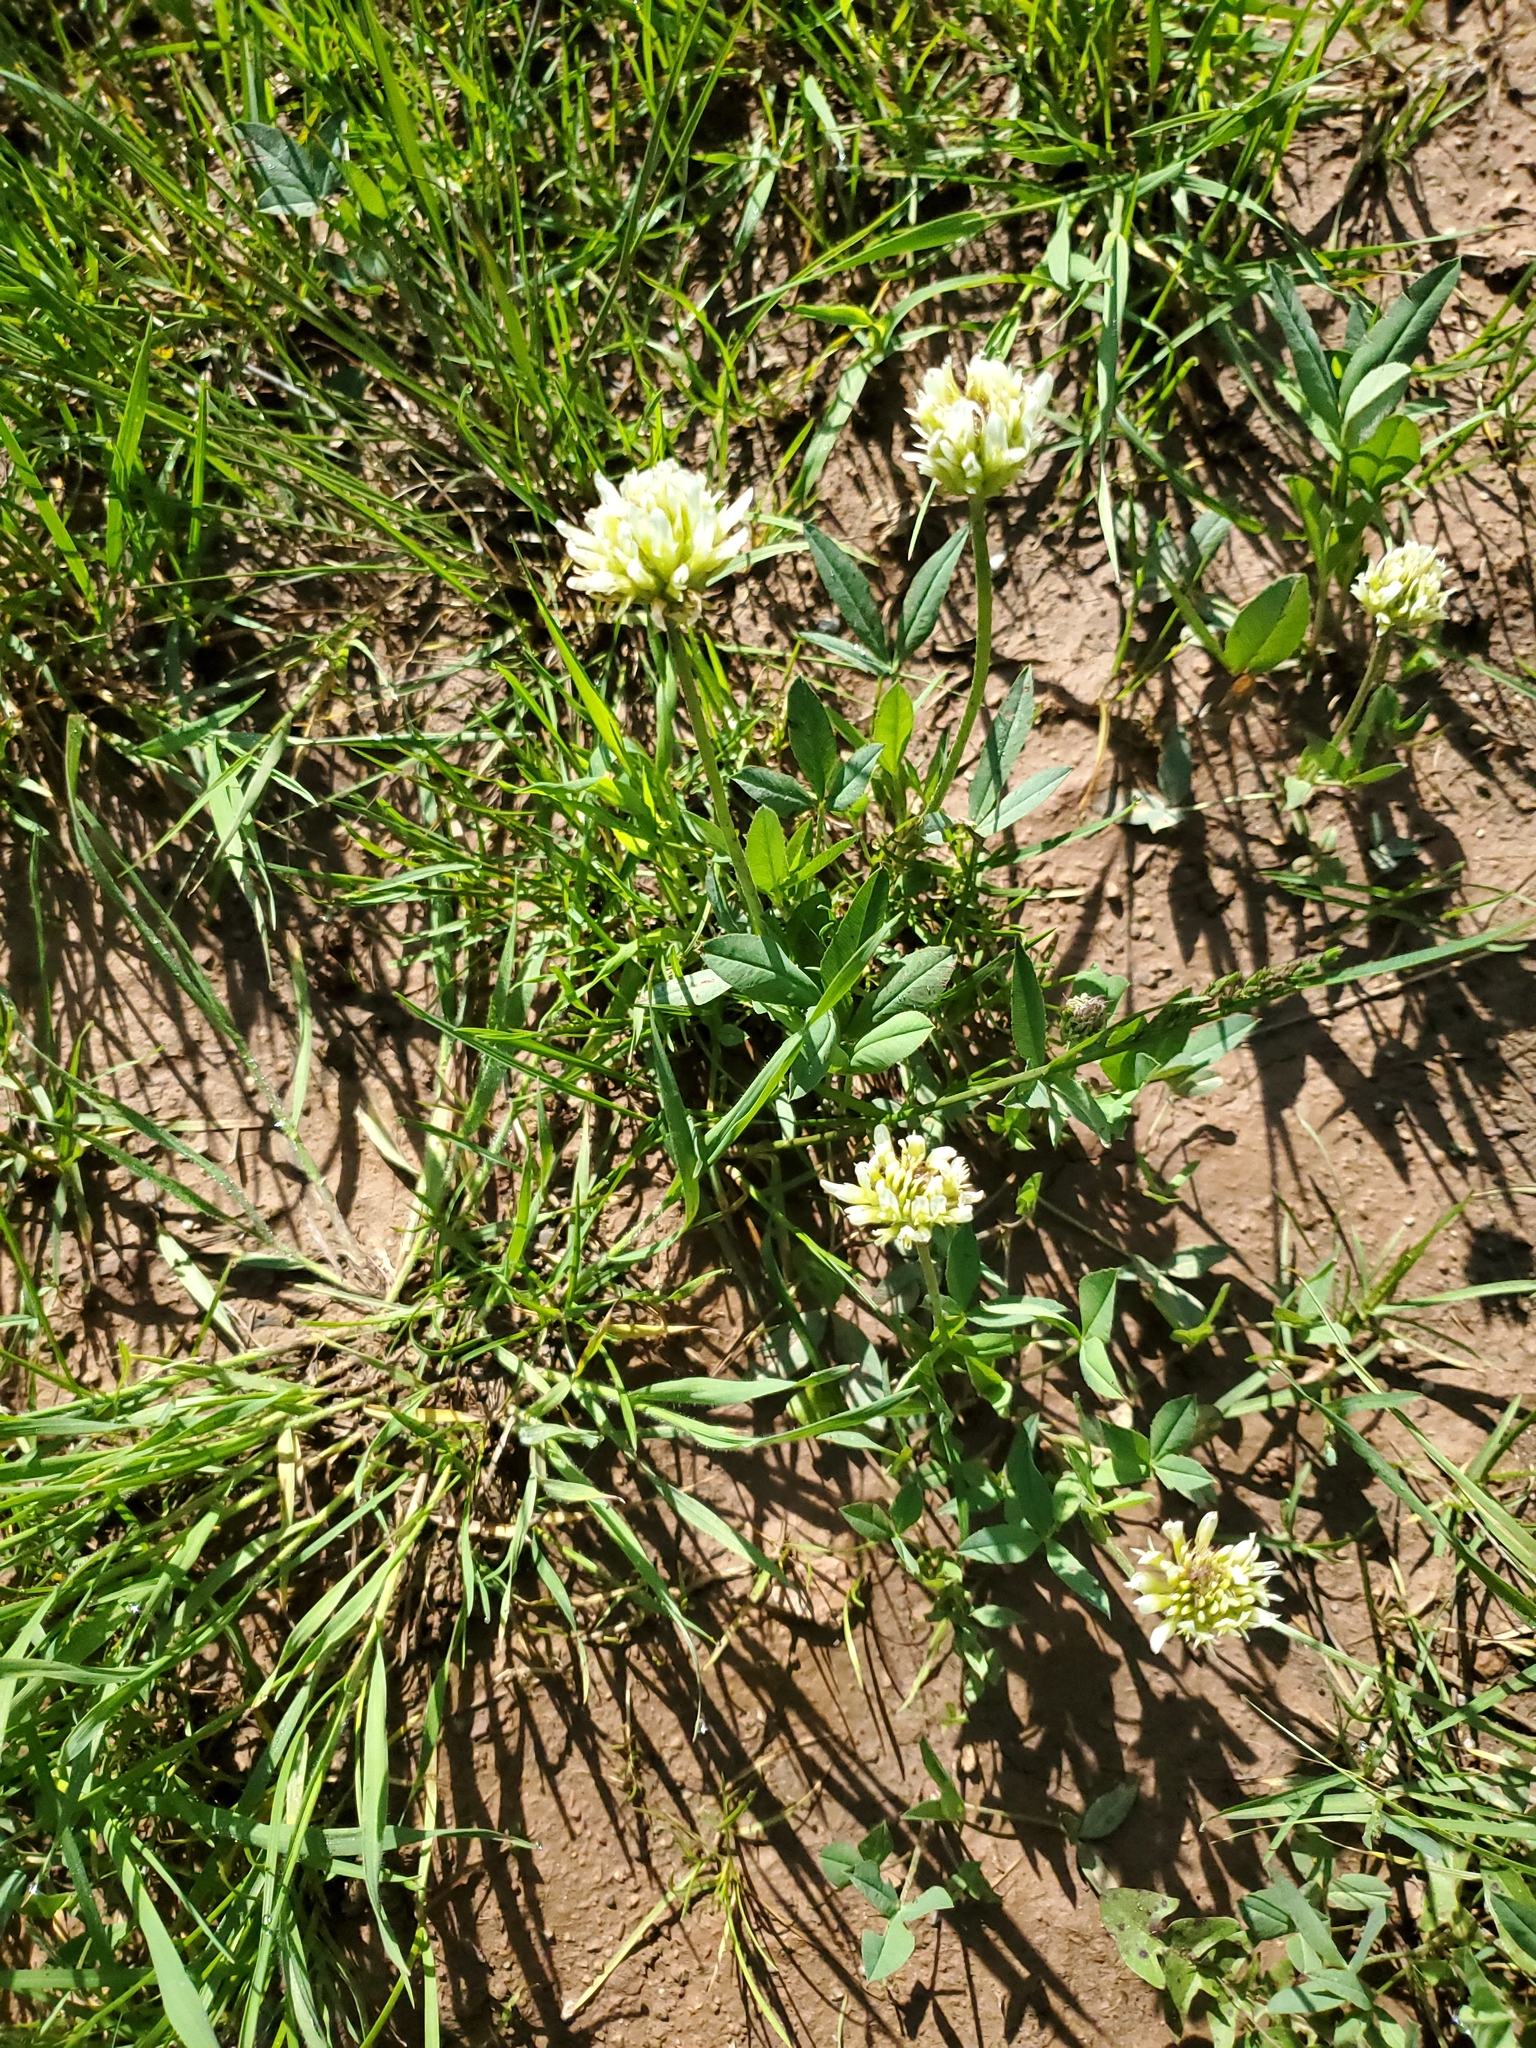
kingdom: Plantae
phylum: Tracheophyta
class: Magnoliopsida
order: Fabales
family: Fabaceae
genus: Trifolium
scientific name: Trifolium longipes
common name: Long-stalk clover
